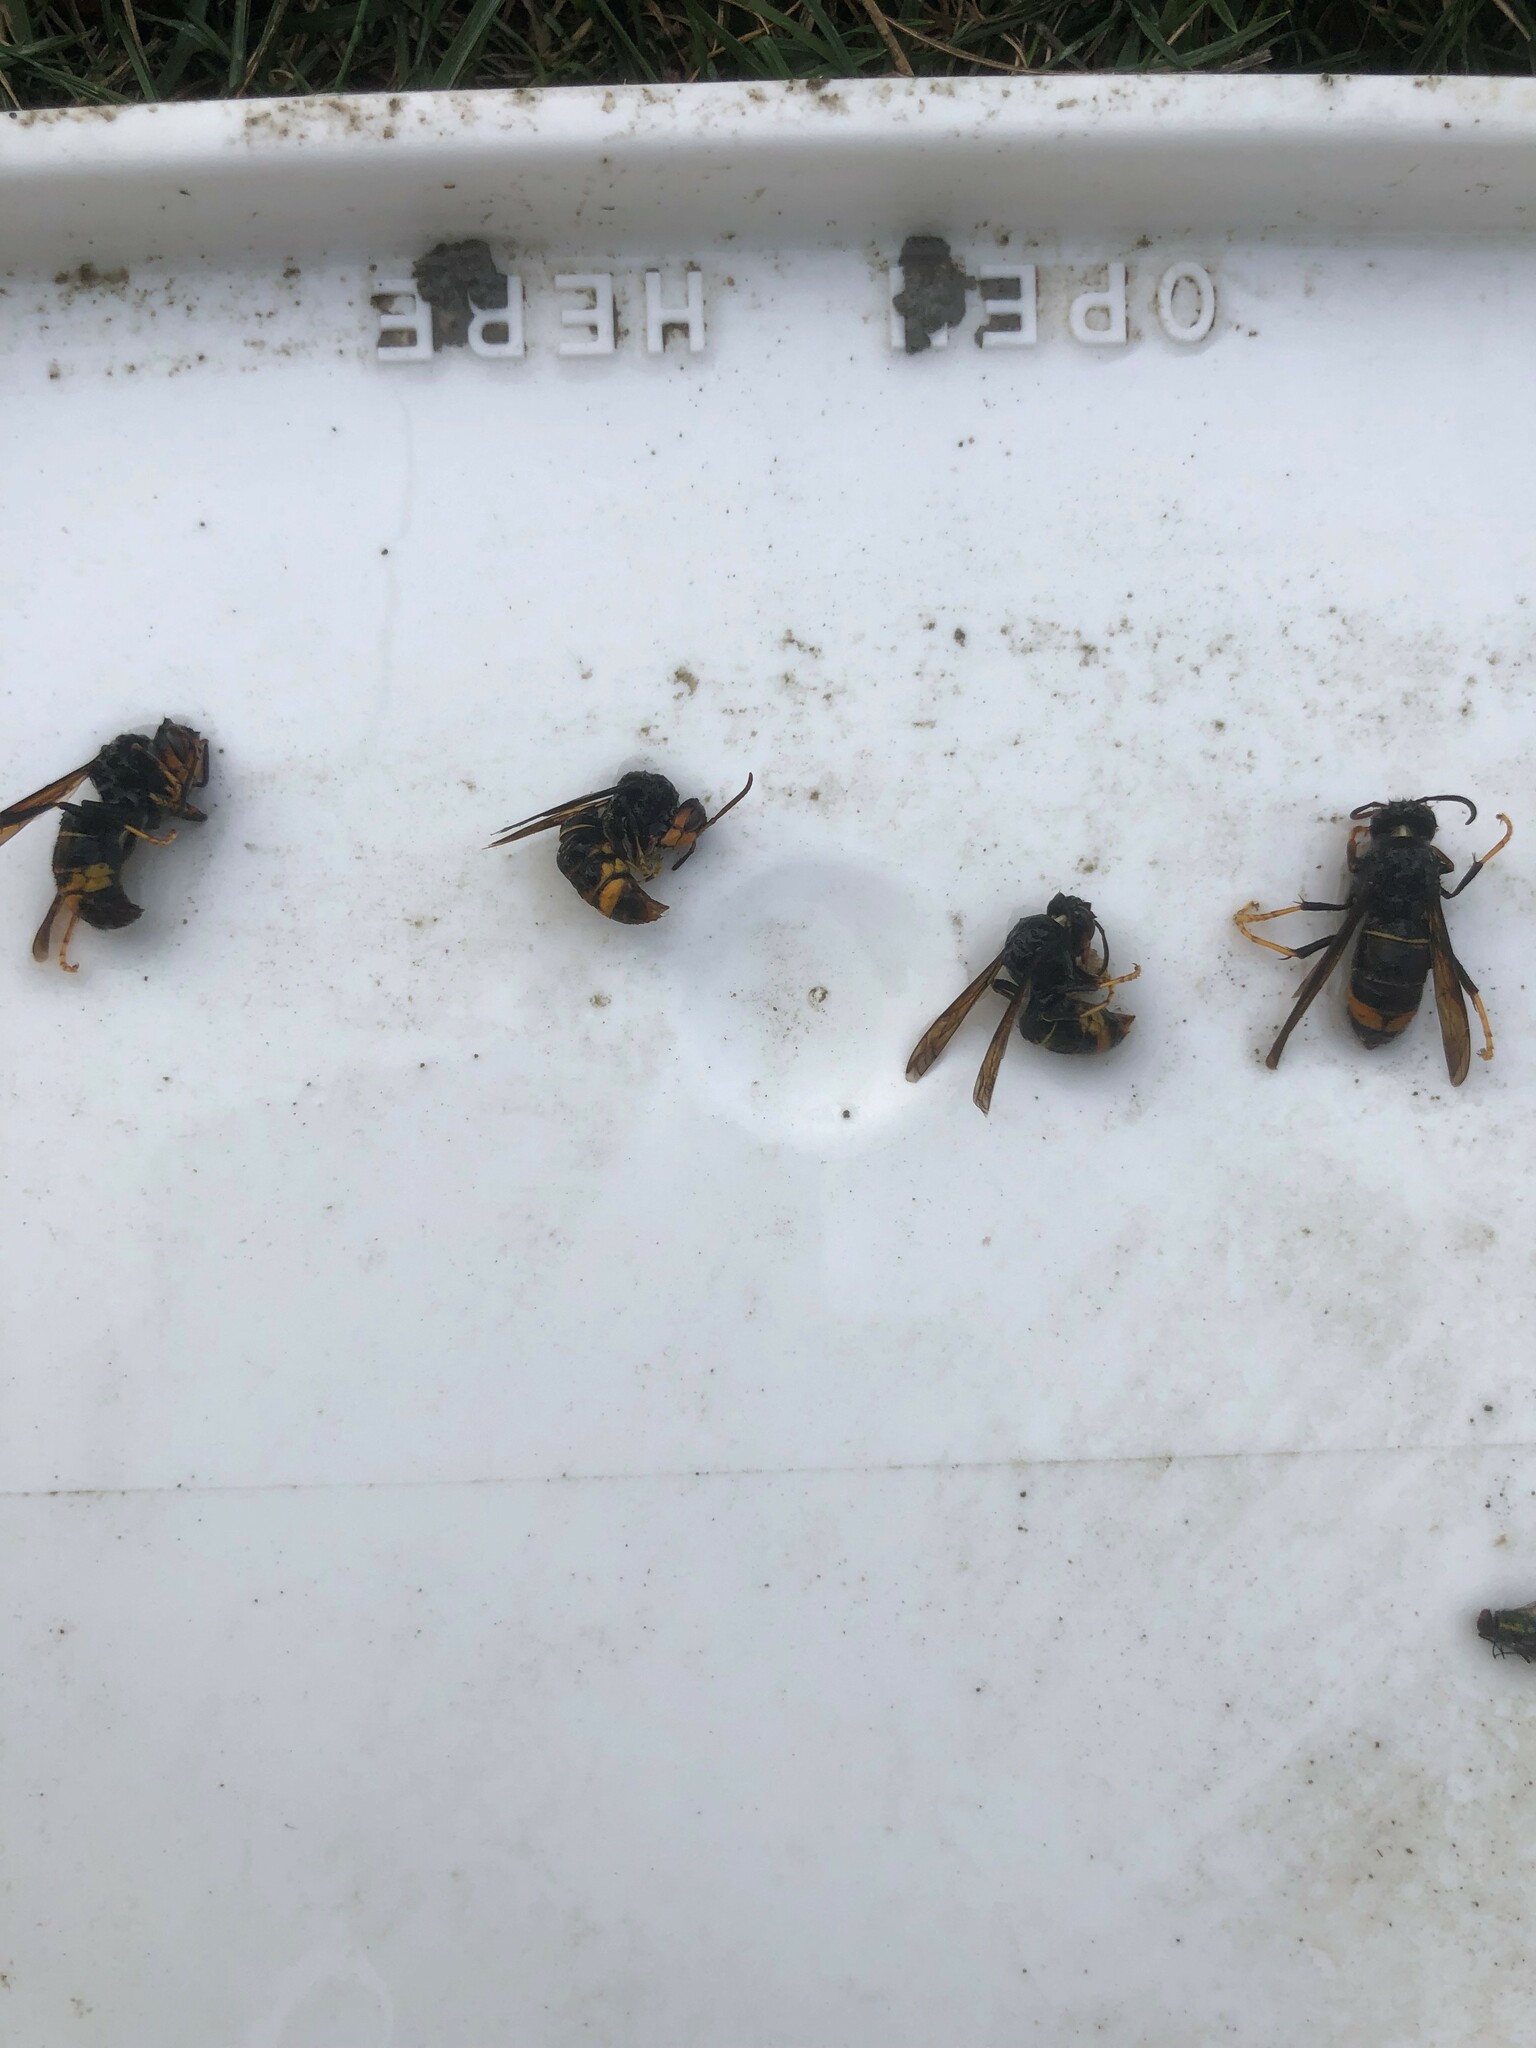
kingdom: Animalia
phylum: Arthropoda
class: Insecta
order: Hymenoptera
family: Vespidae
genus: Vespa
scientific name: Vespa velutina
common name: Asian hornet
